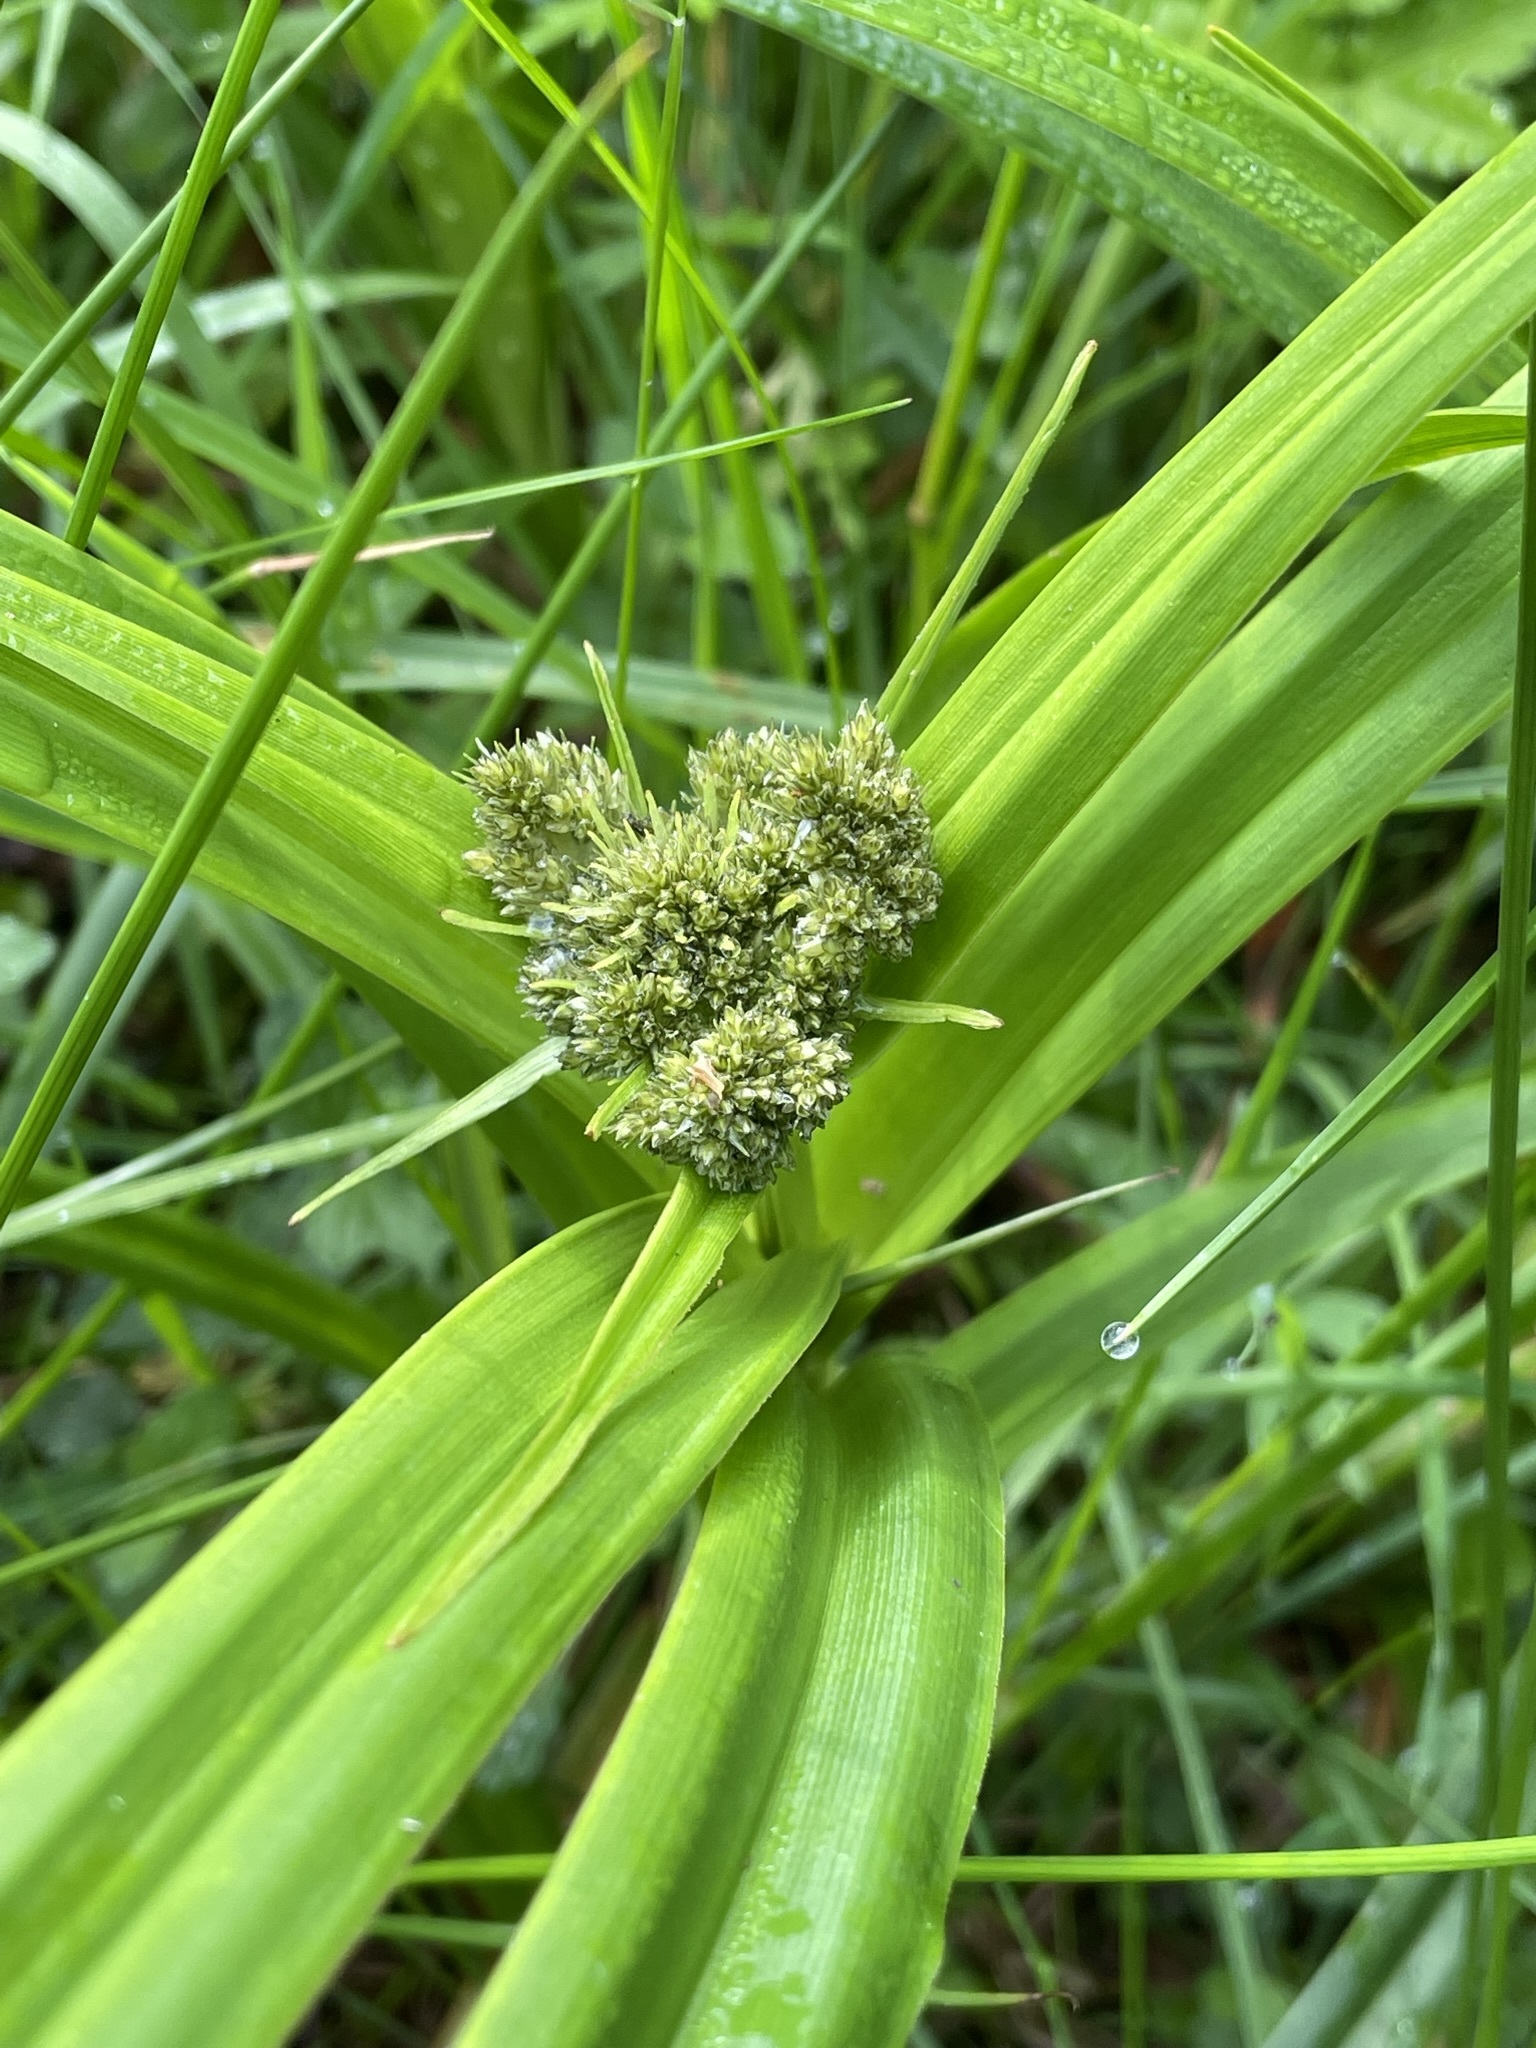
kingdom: Plantae
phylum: Tracheophyta
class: Liliopsida
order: Poales
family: Cyperaceae
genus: Scirpus
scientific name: Scirpus sylvaticus
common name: Wood club-rush
